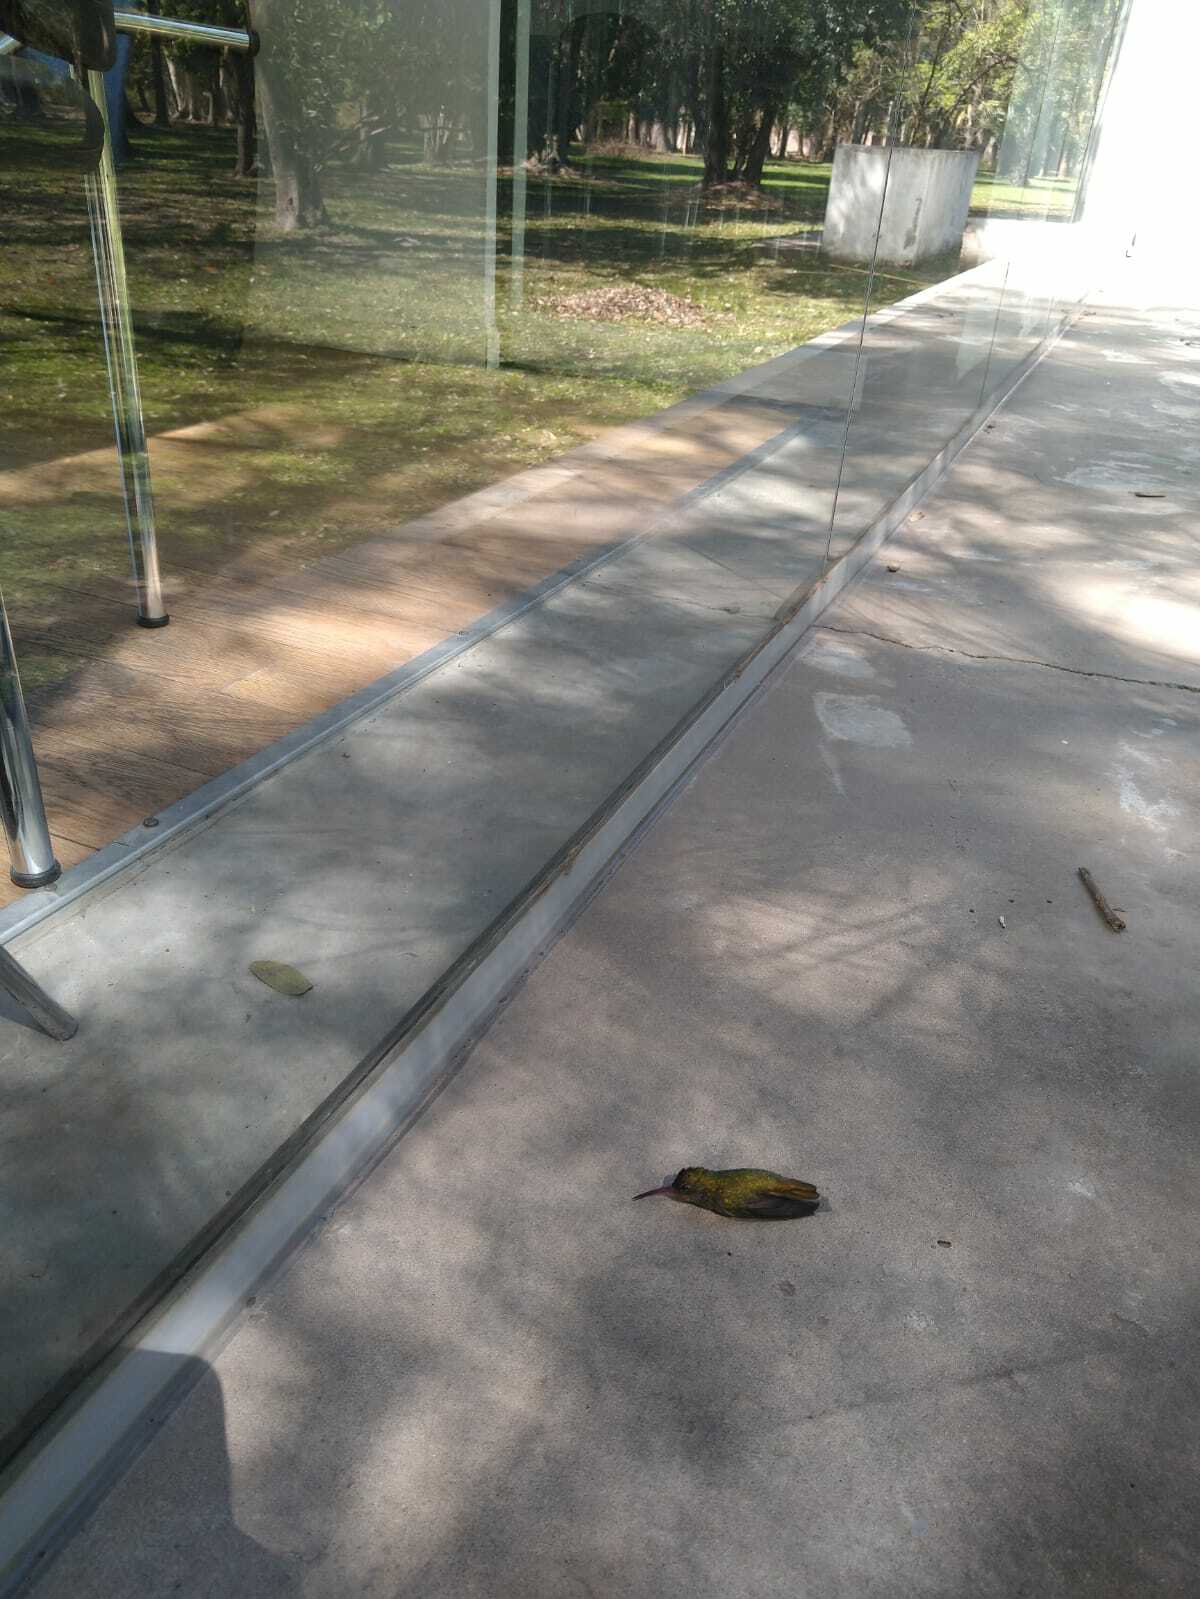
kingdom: Animalia
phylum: Chordata
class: Aves
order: Apodiformes
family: Trochilidae
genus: Hylocharis
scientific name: Hylocharis chrysura
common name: Gilded sapphire
